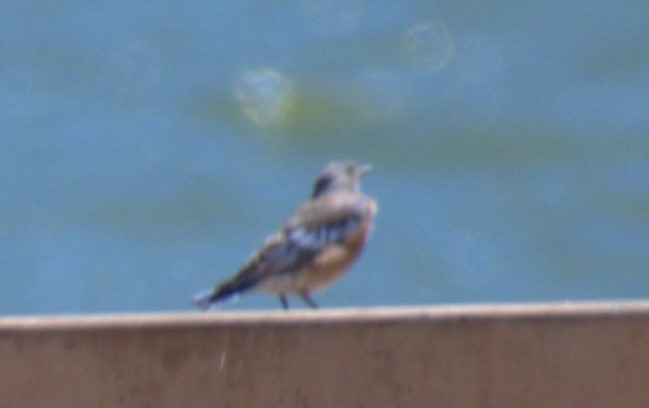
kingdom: Animalia
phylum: Chordata
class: Aves
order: Passeriformes
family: Turdidae
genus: Sialia
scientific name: Sialia mexicana
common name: Western bluebird
